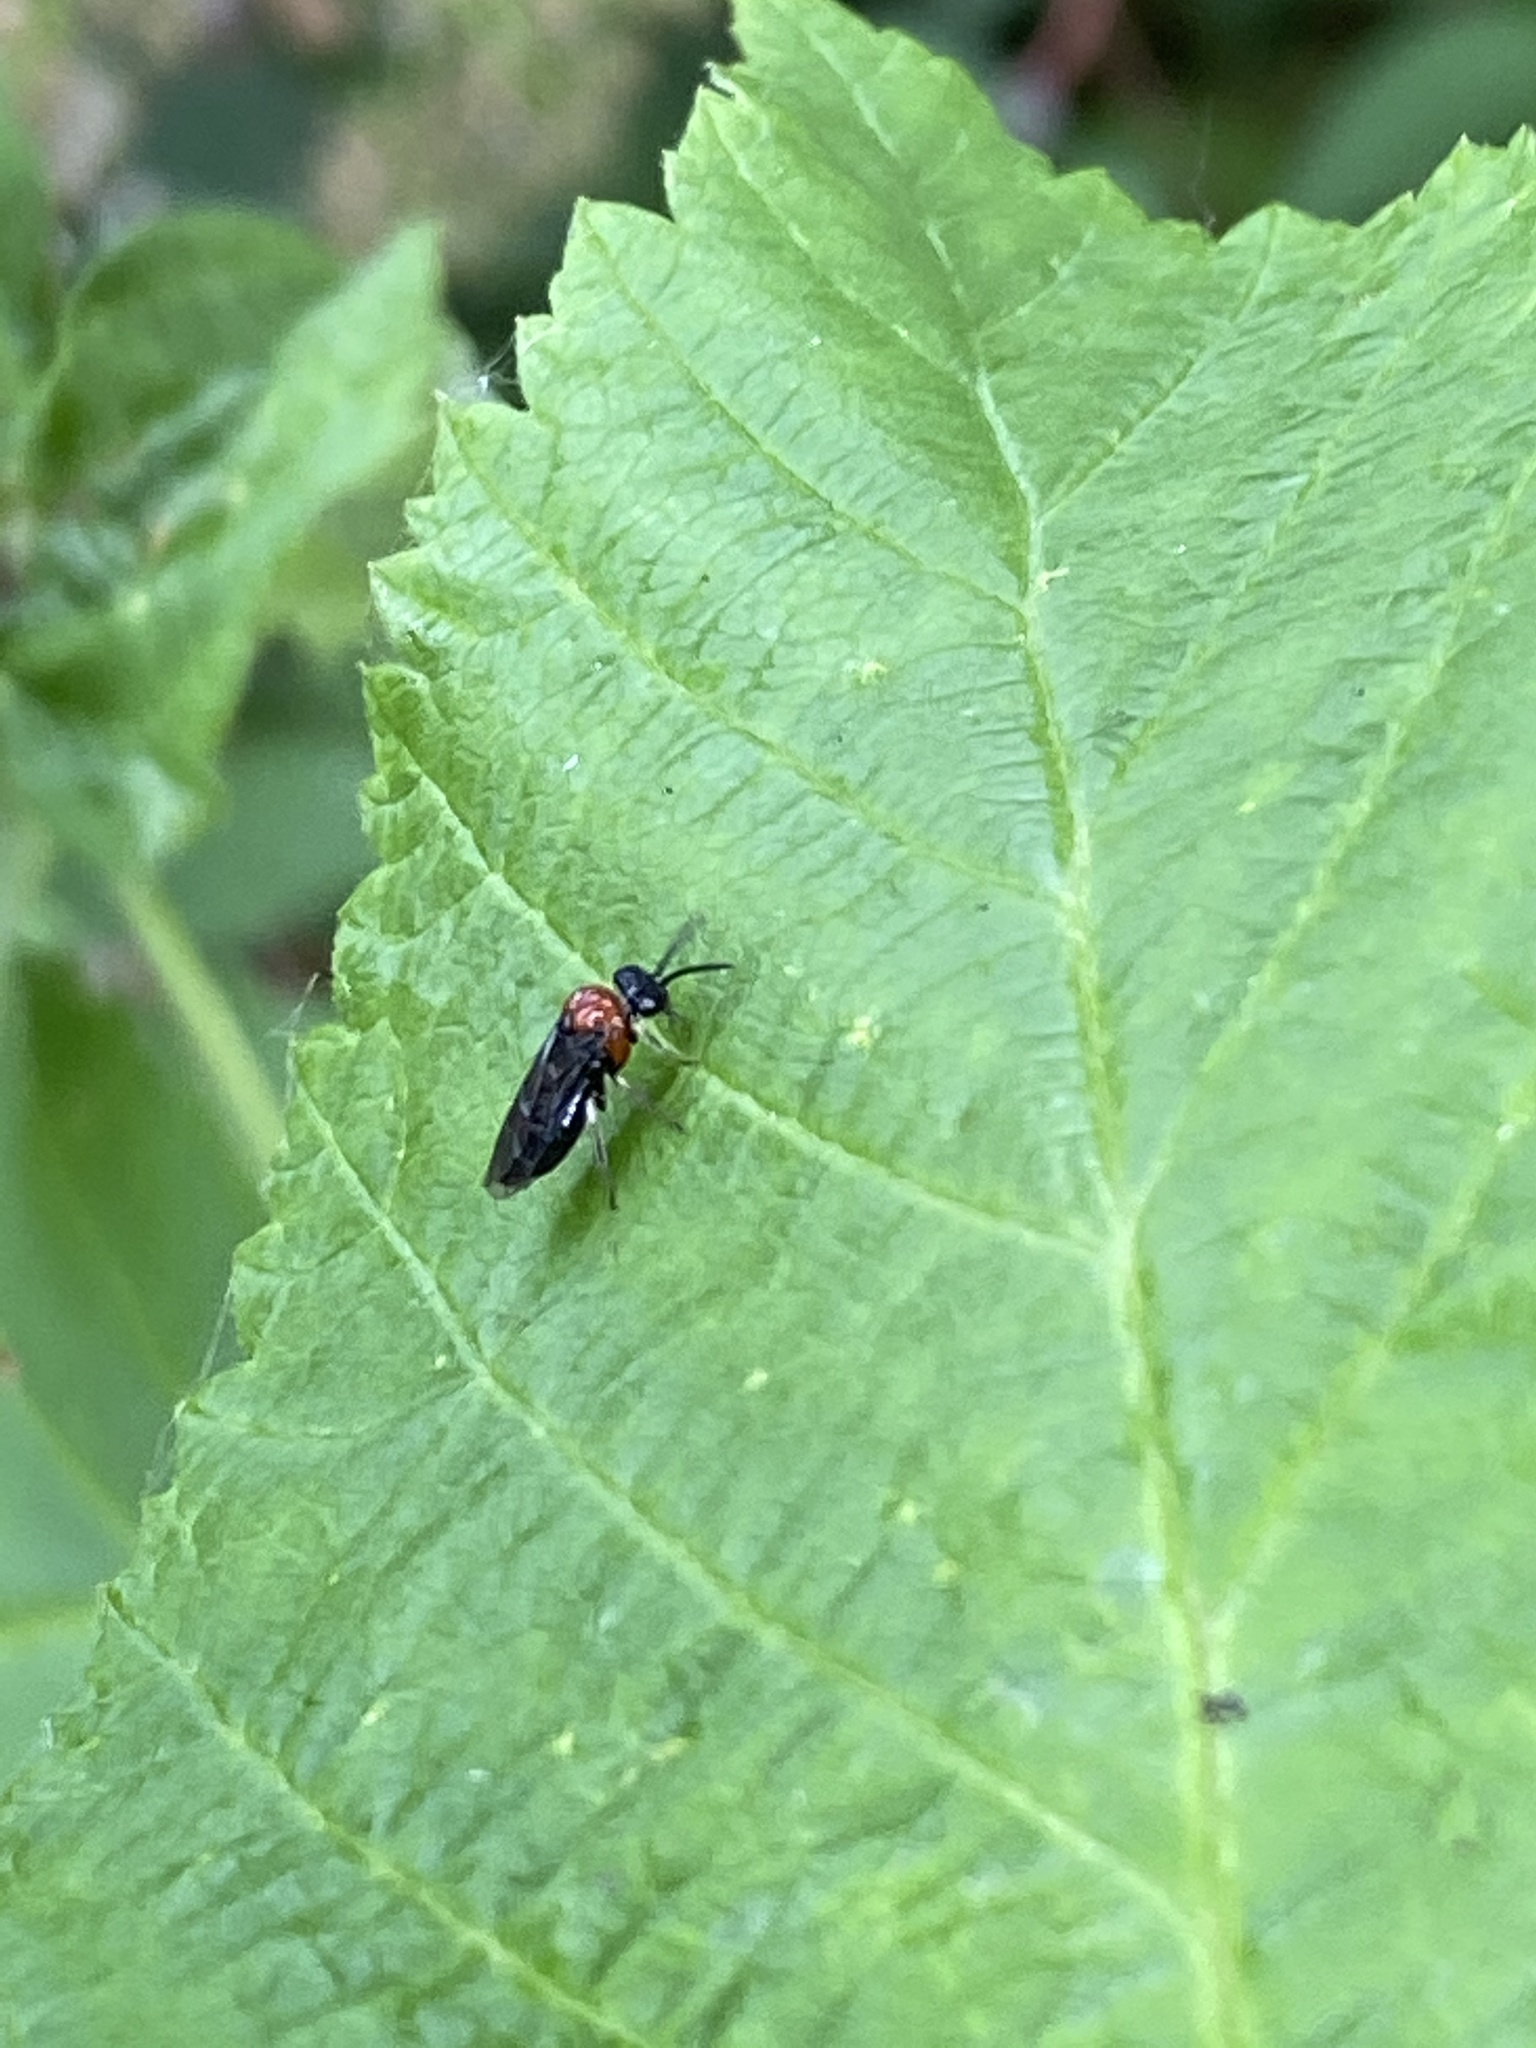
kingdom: Animalia
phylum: Arthropoda
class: Insecta
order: Hymenoptera
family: Tenthredinidae
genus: Eutomostethus
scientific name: Eutomostethus ephippium
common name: Tenthredid wasp
